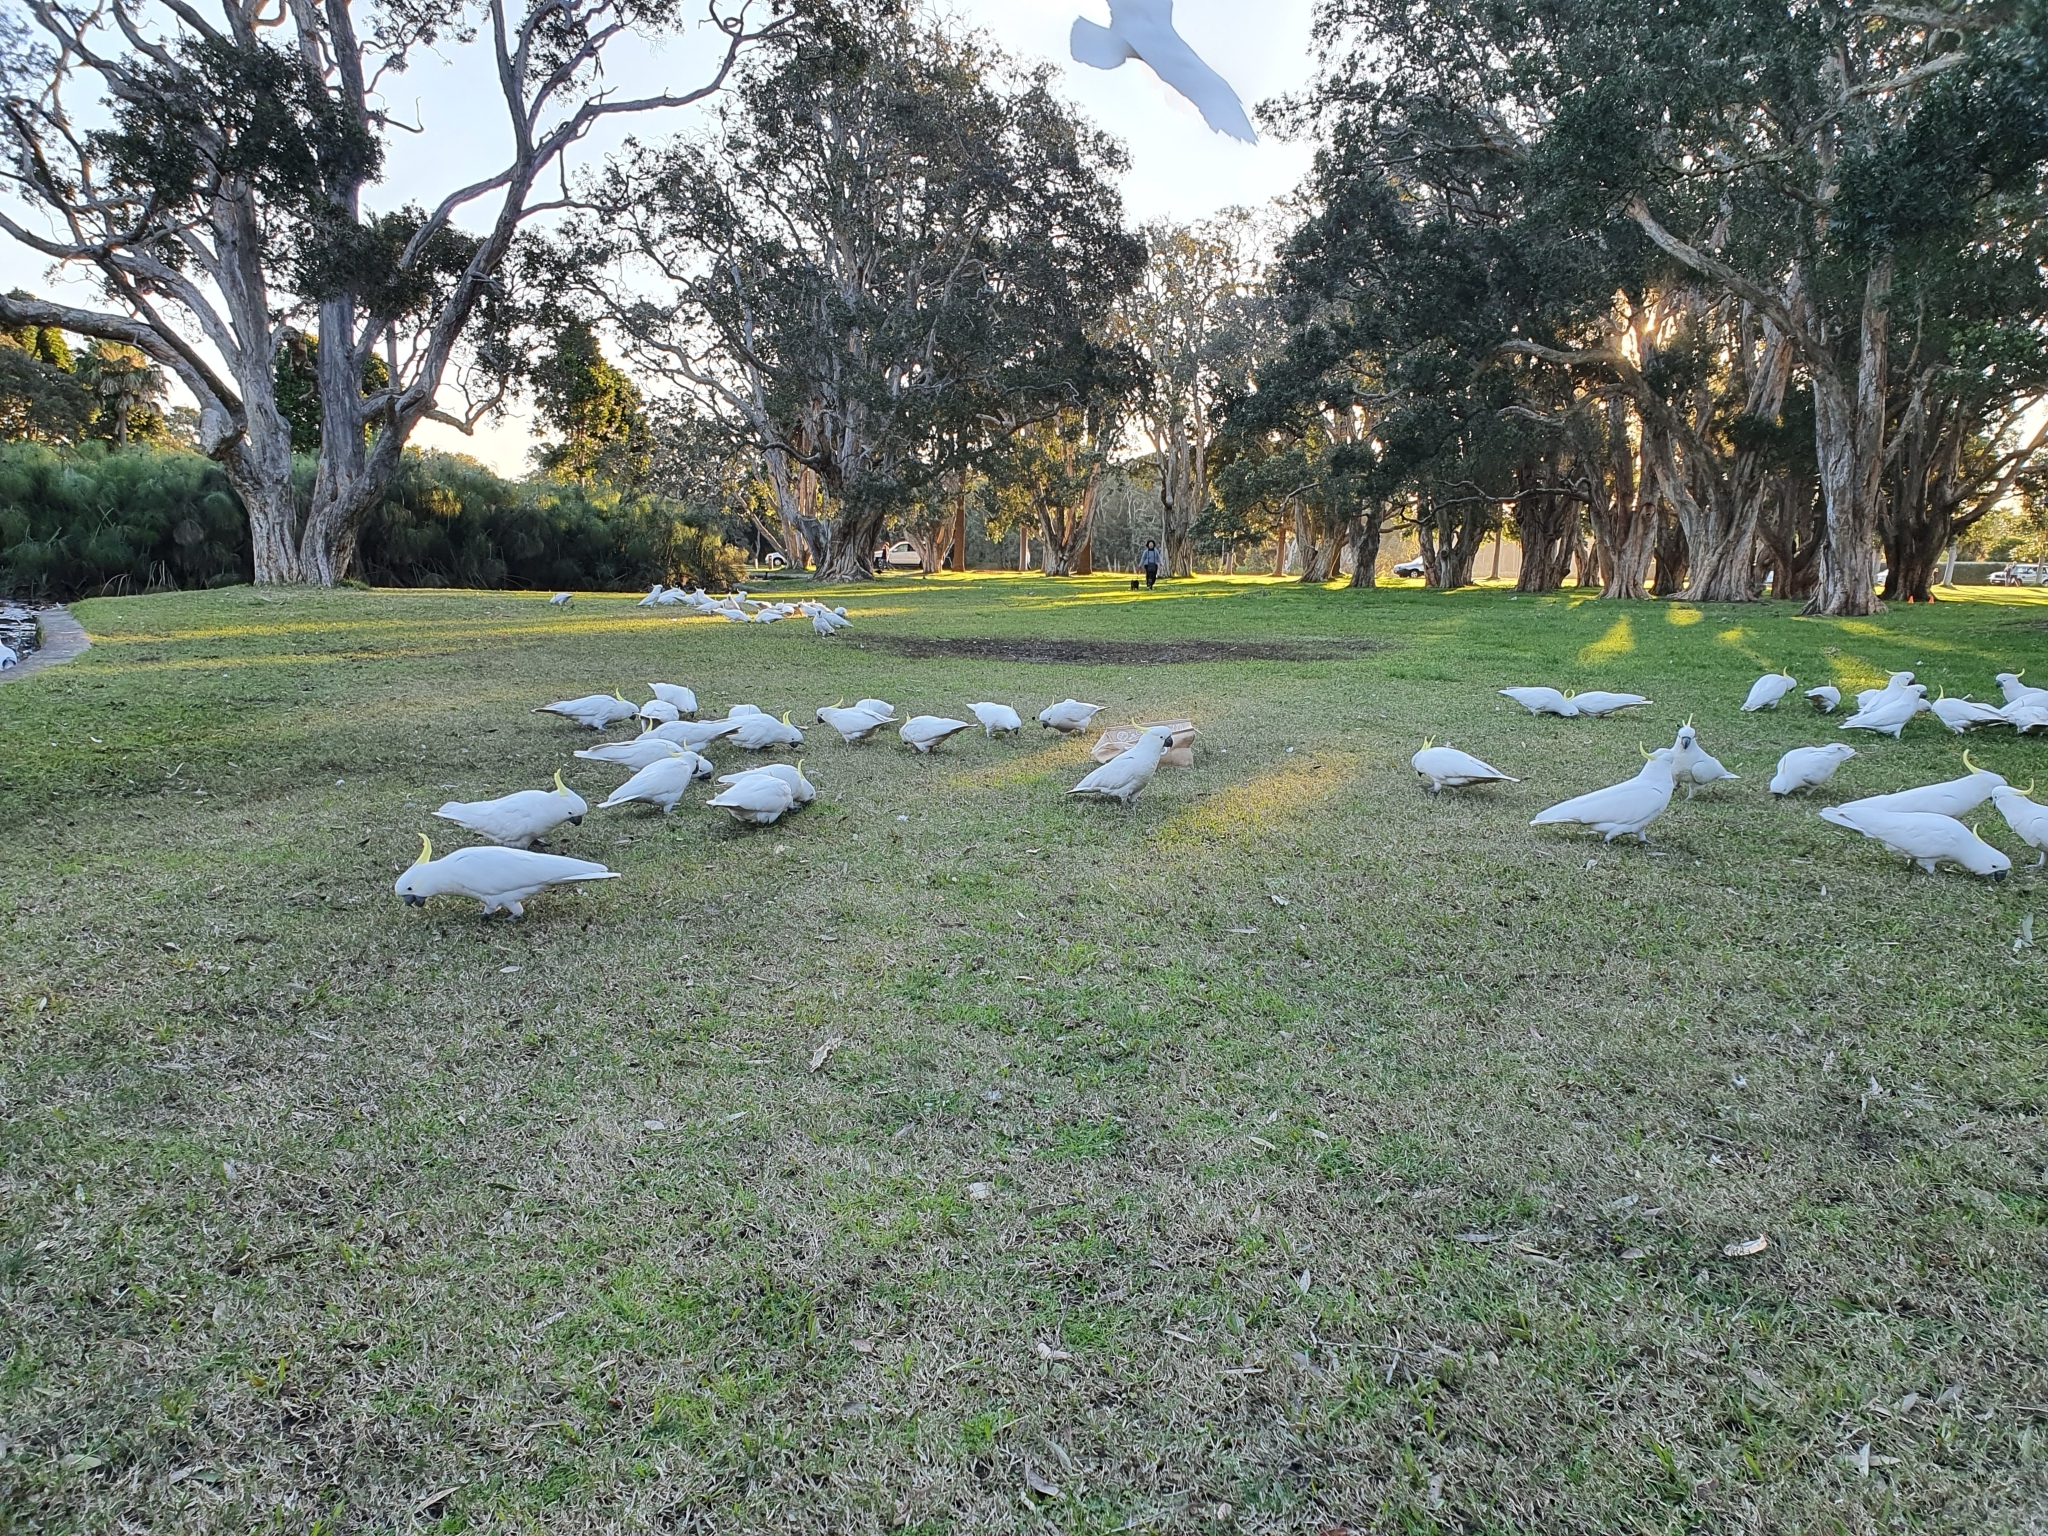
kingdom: Animalia
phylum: Chordata
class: Aves
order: Psittaciformes
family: Psittacidae
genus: Cacatua
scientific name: Cacatua galerita
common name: Sulphur-crested cockatoo
